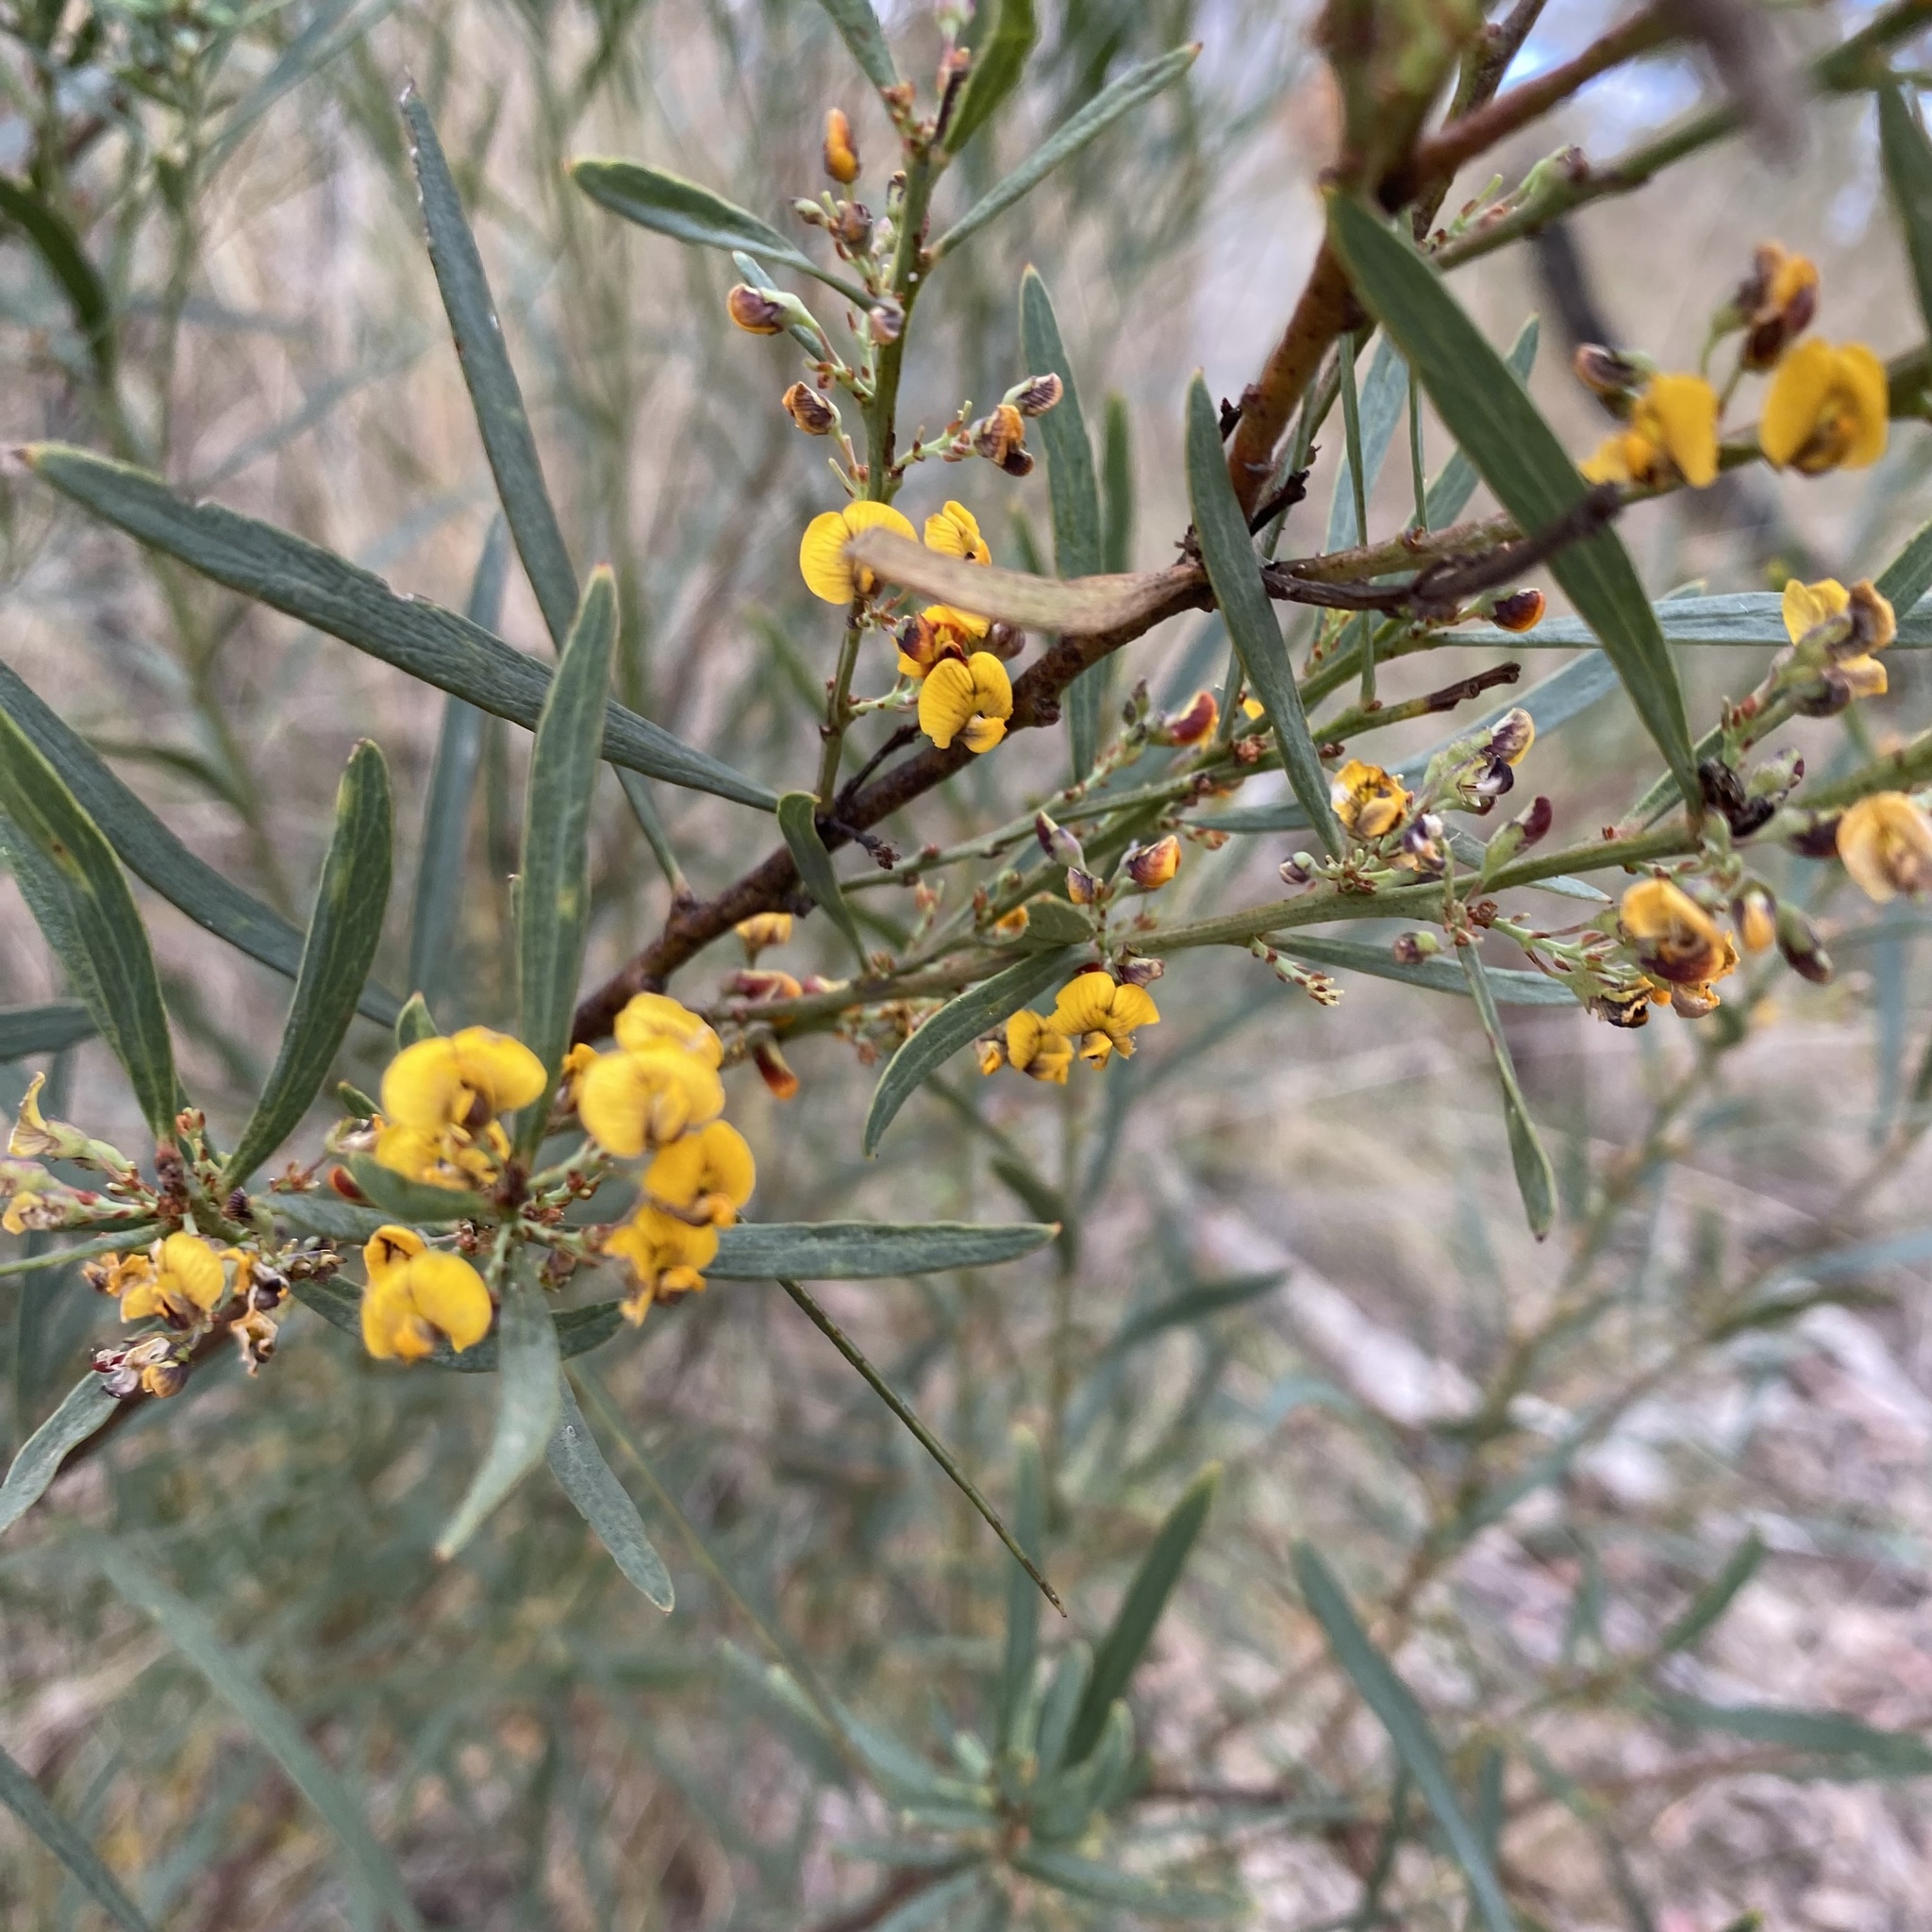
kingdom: Plantae
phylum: Tracheophyta
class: Magnoliopsida
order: Fabales
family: Fabaceae
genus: Daviesia
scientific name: Daviesia leptophylla
